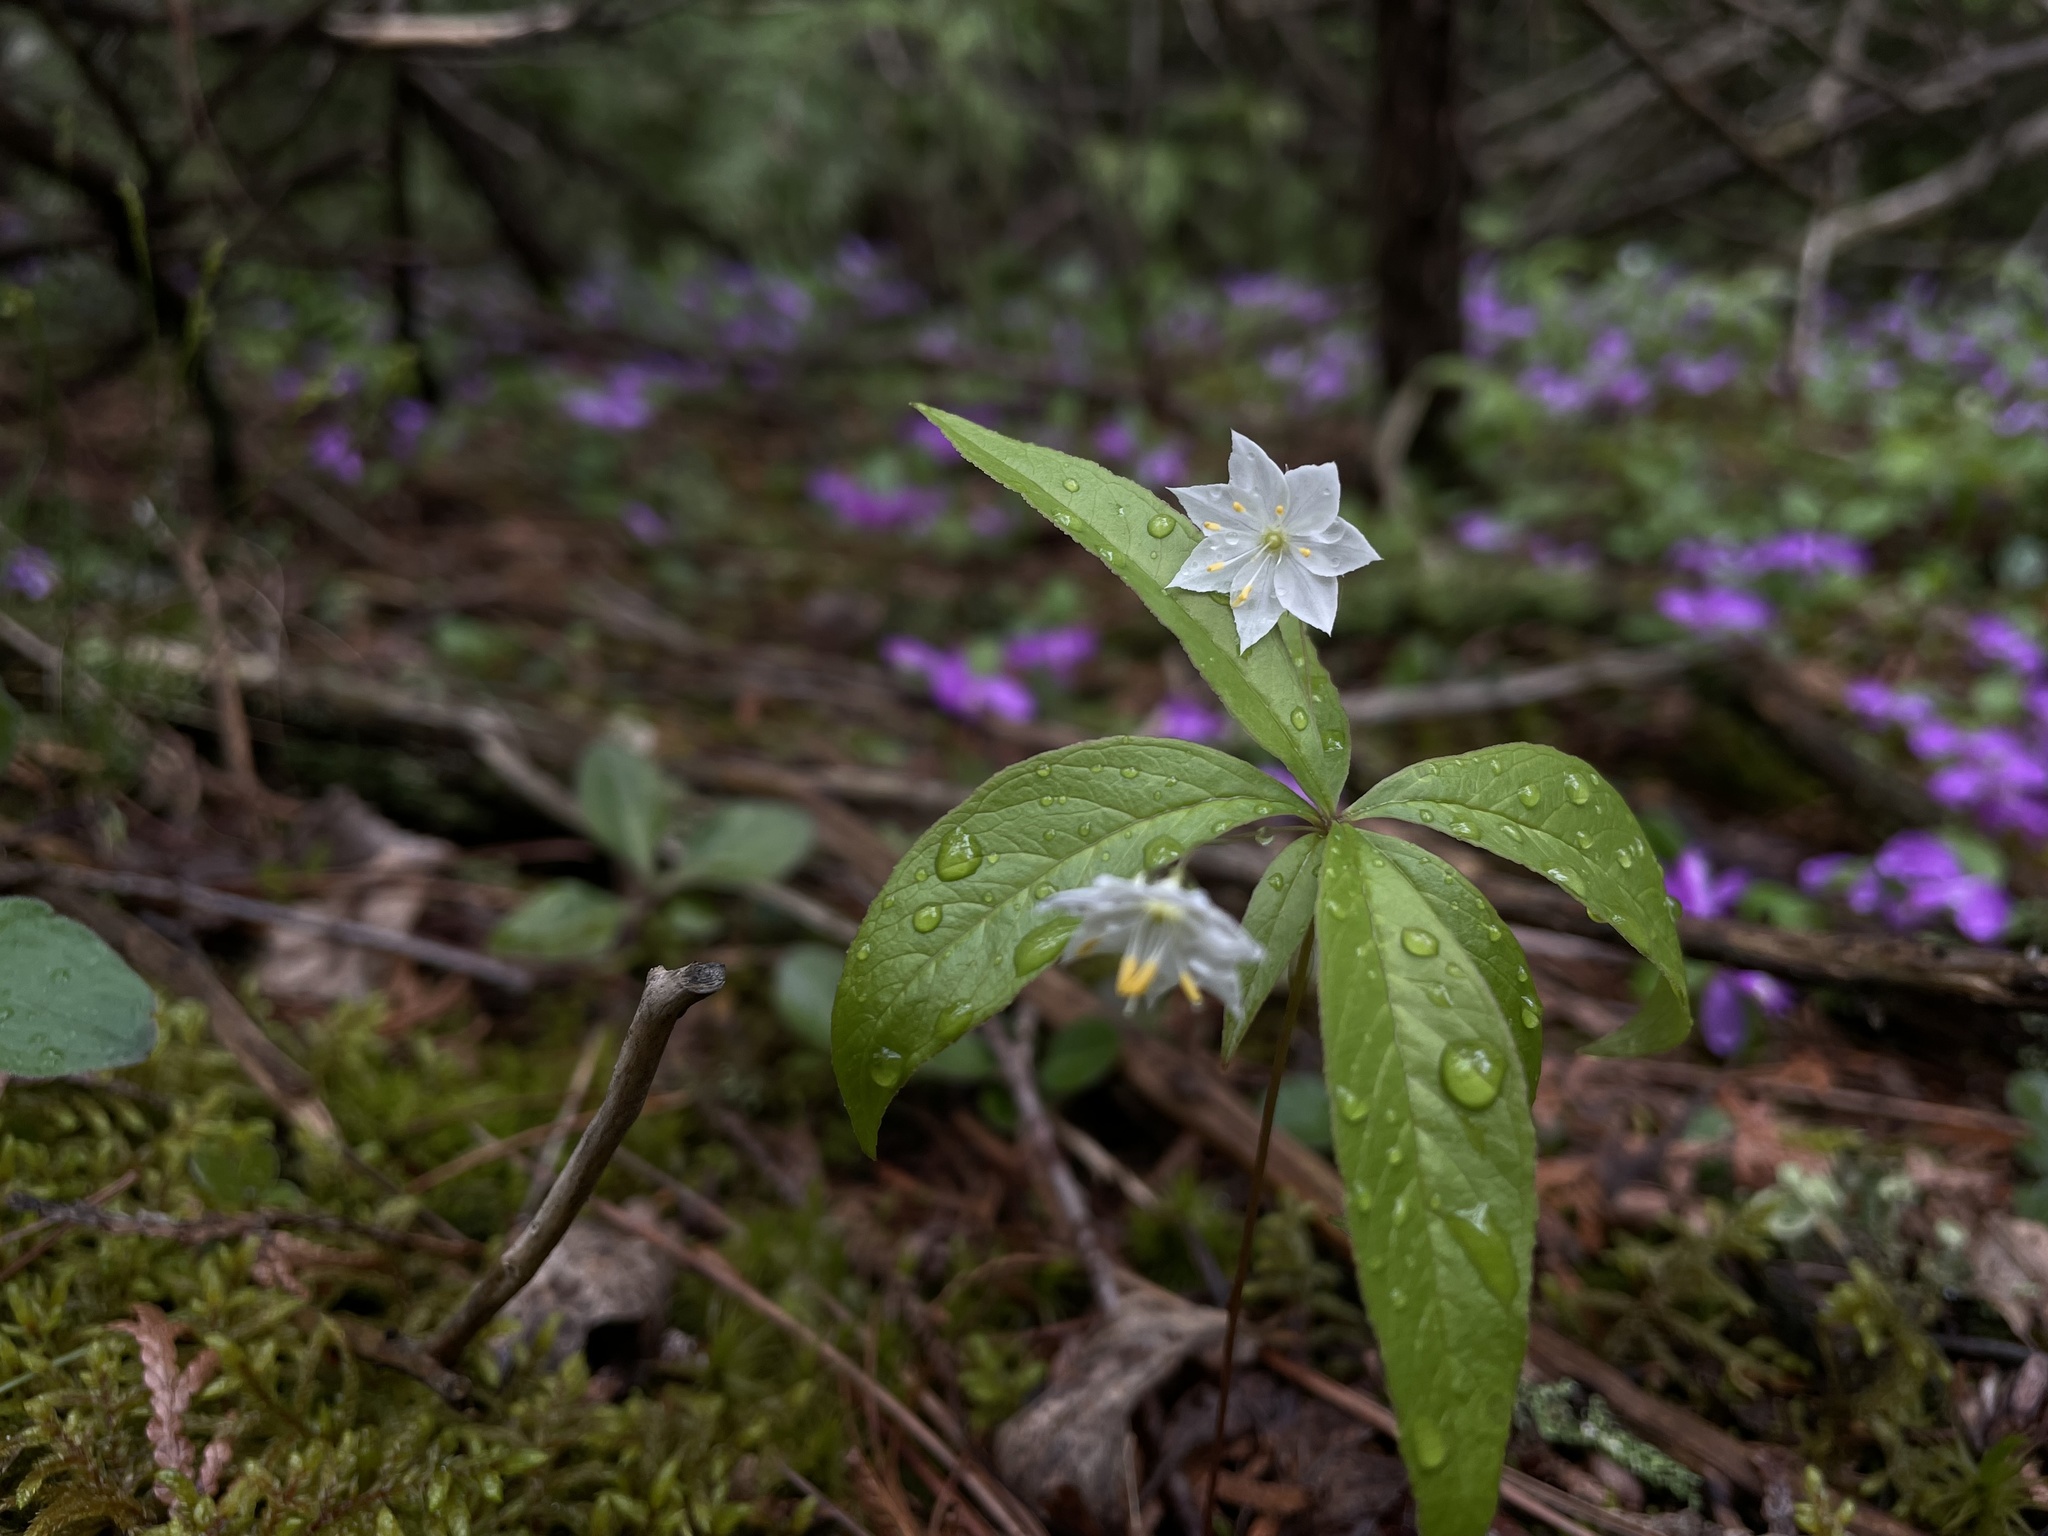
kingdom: Plantae
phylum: Tracheophyta
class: Magnoliopsida
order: Ericales
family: Primulaceae
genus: Lysimachia
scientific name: Lysimachia borealis
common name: American starflower
